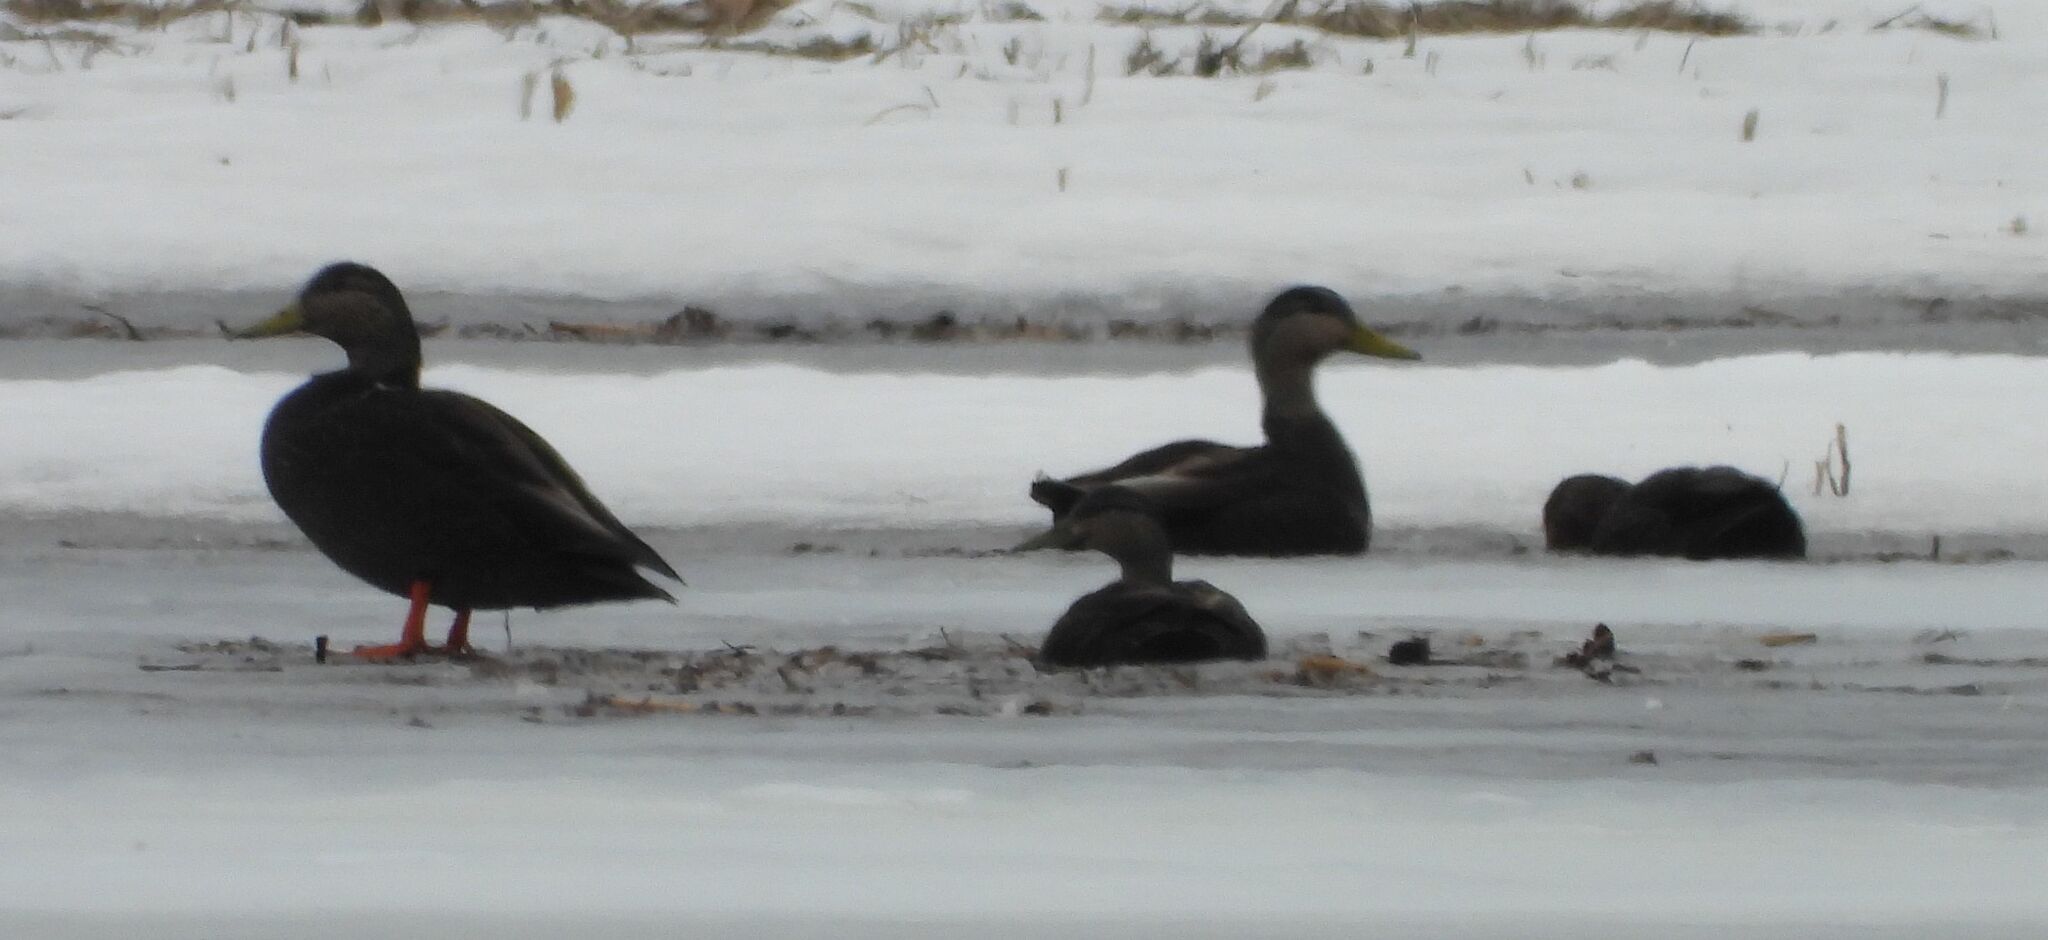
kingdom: Animalia
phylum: Chordata
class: Aves
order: Anseriformes
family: Anatidae
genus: Anas
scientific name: Anas rubripes
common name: American black duck
